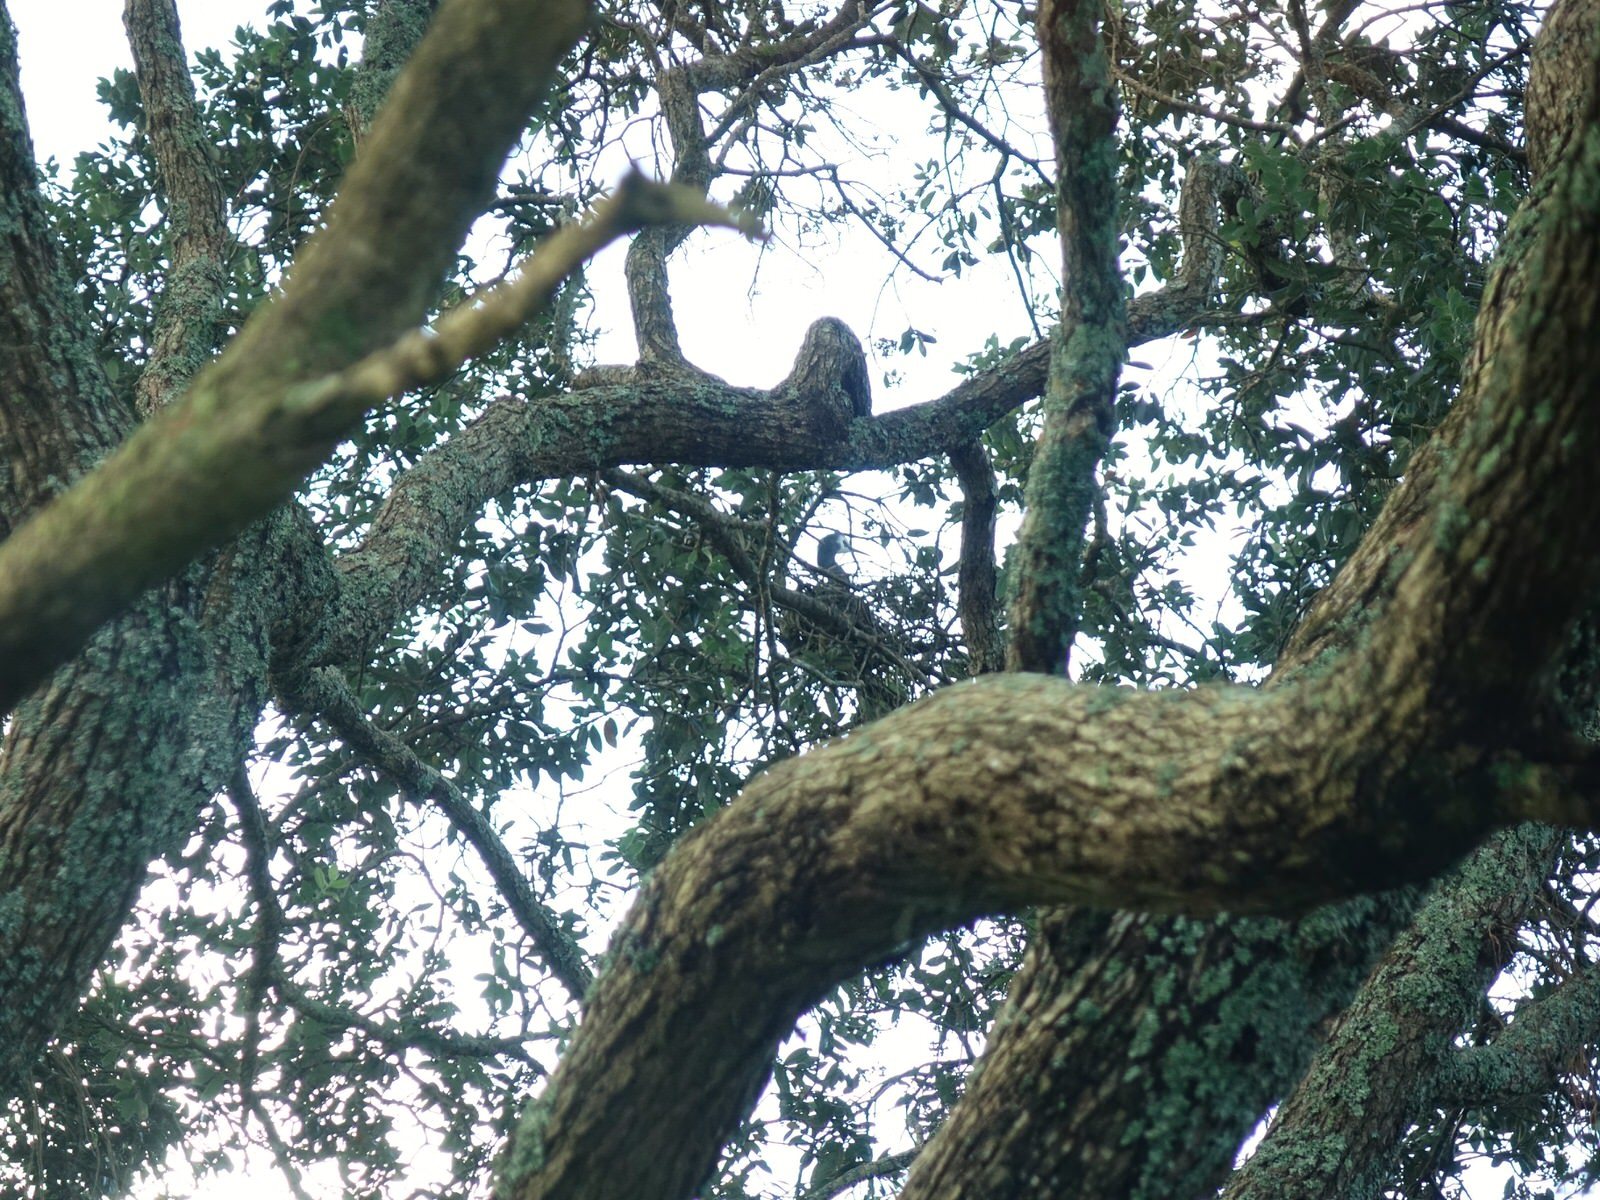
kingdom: Animalia
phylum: Chordata
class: Aves
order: Pelecaniformes
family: Ardeidae
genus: Egretta
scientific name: Egretta novaehollandiae
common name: White-faced heron
